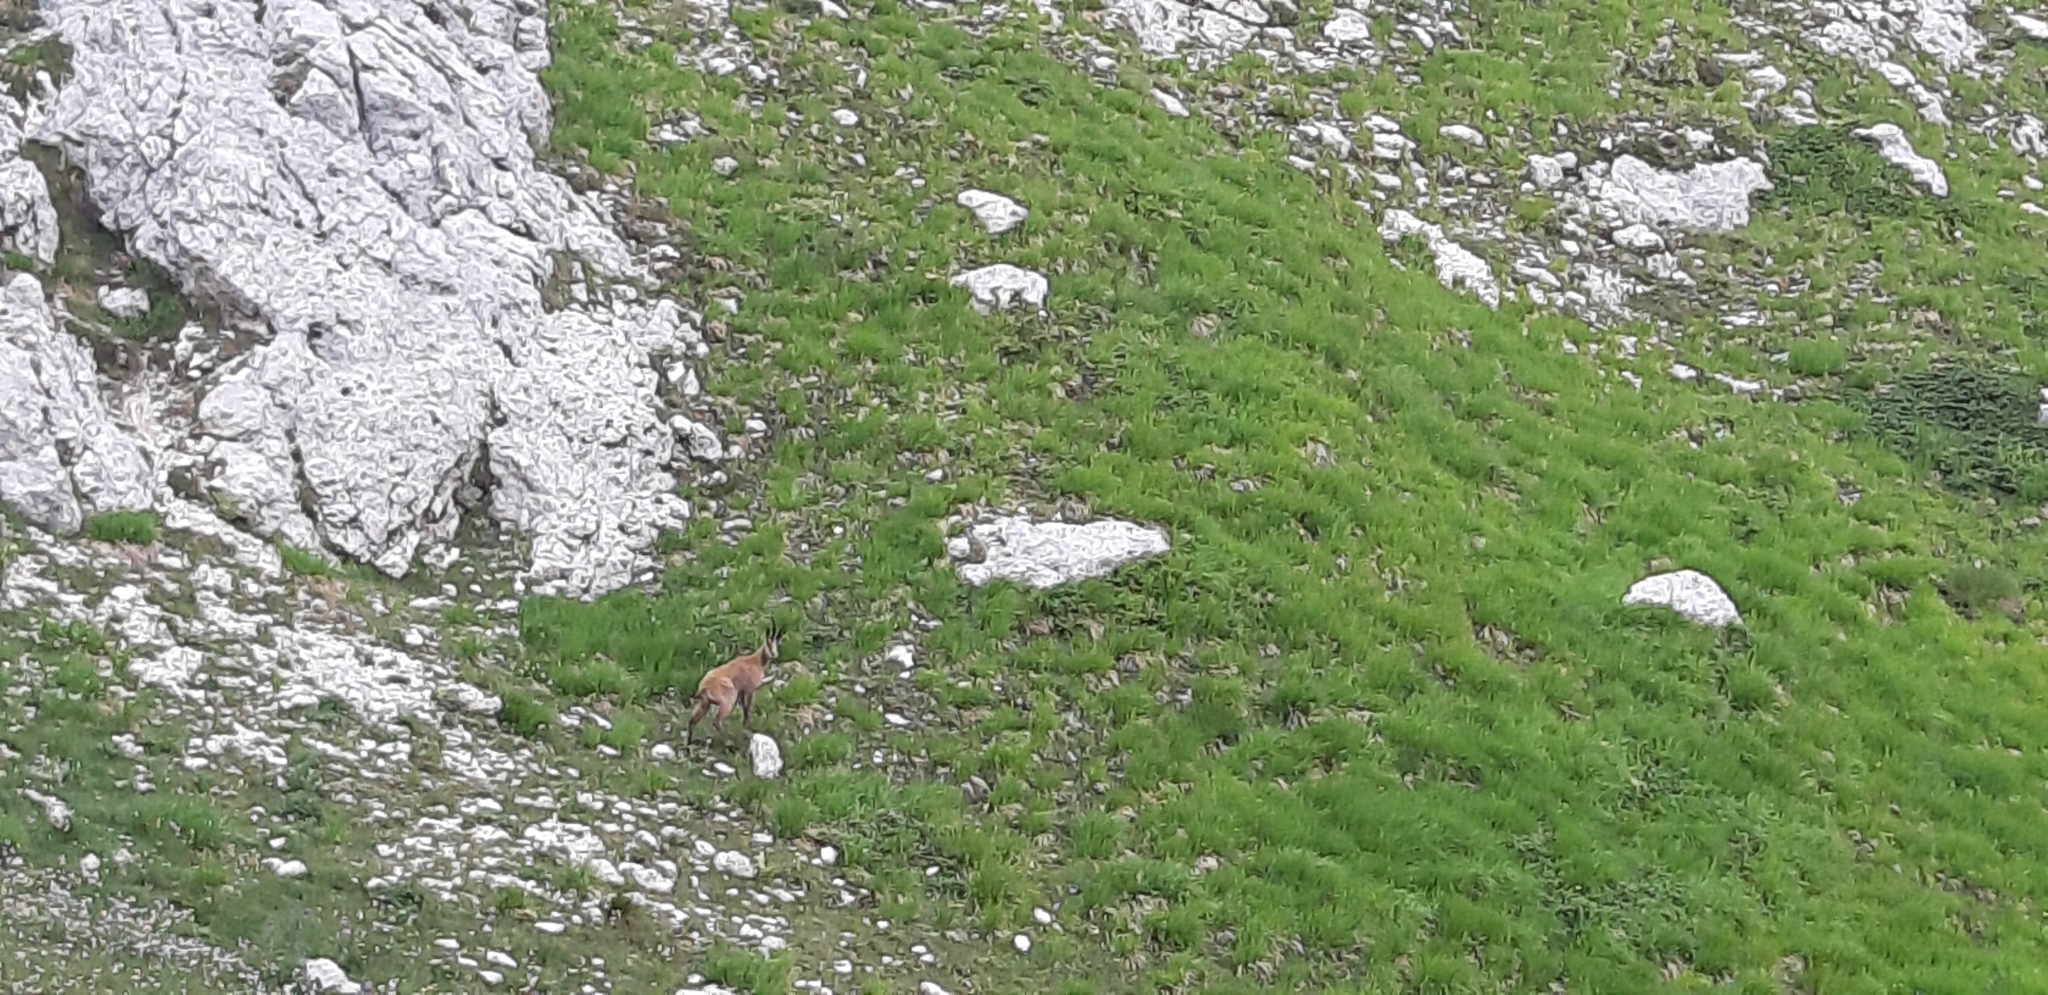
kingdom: Animalia
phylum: Chordata
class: Mammalia
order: Artiodactyla
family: Bovidae
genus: Rupicapra
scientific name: Rupicapra pyrenaica
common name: Pyrenean chamois
